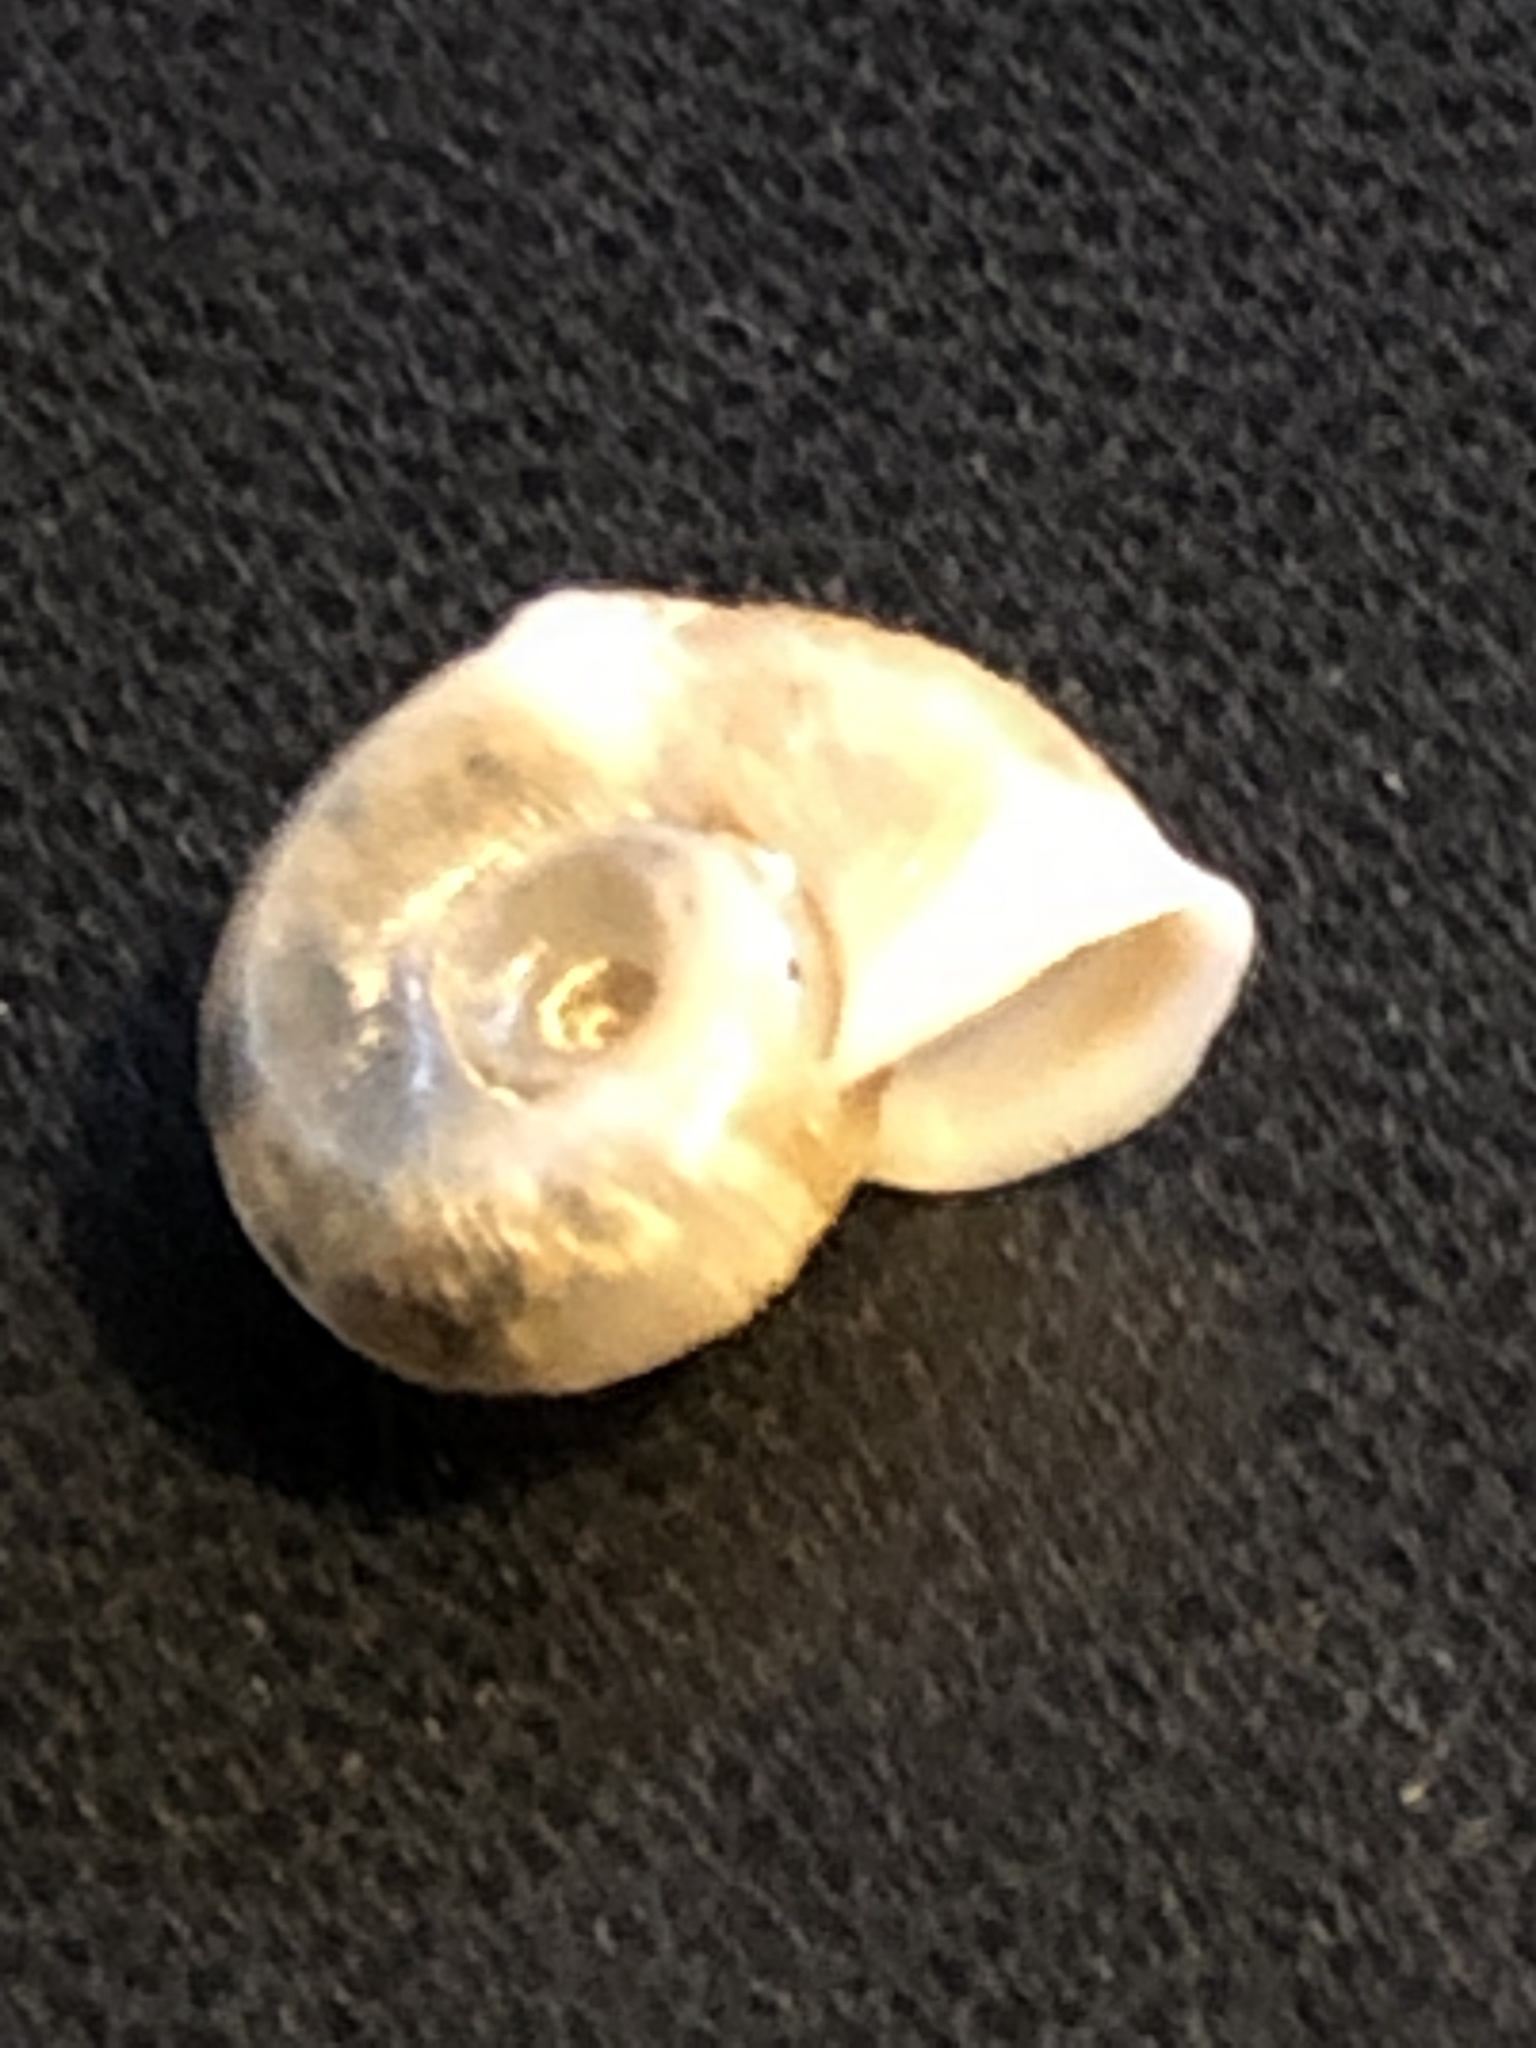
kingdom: Animalia
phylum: Mollusca
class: Gastropoda
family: Planorbidae
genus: Planorbella
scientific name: Planorbella trivolvis
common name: Marsh rams-horn
